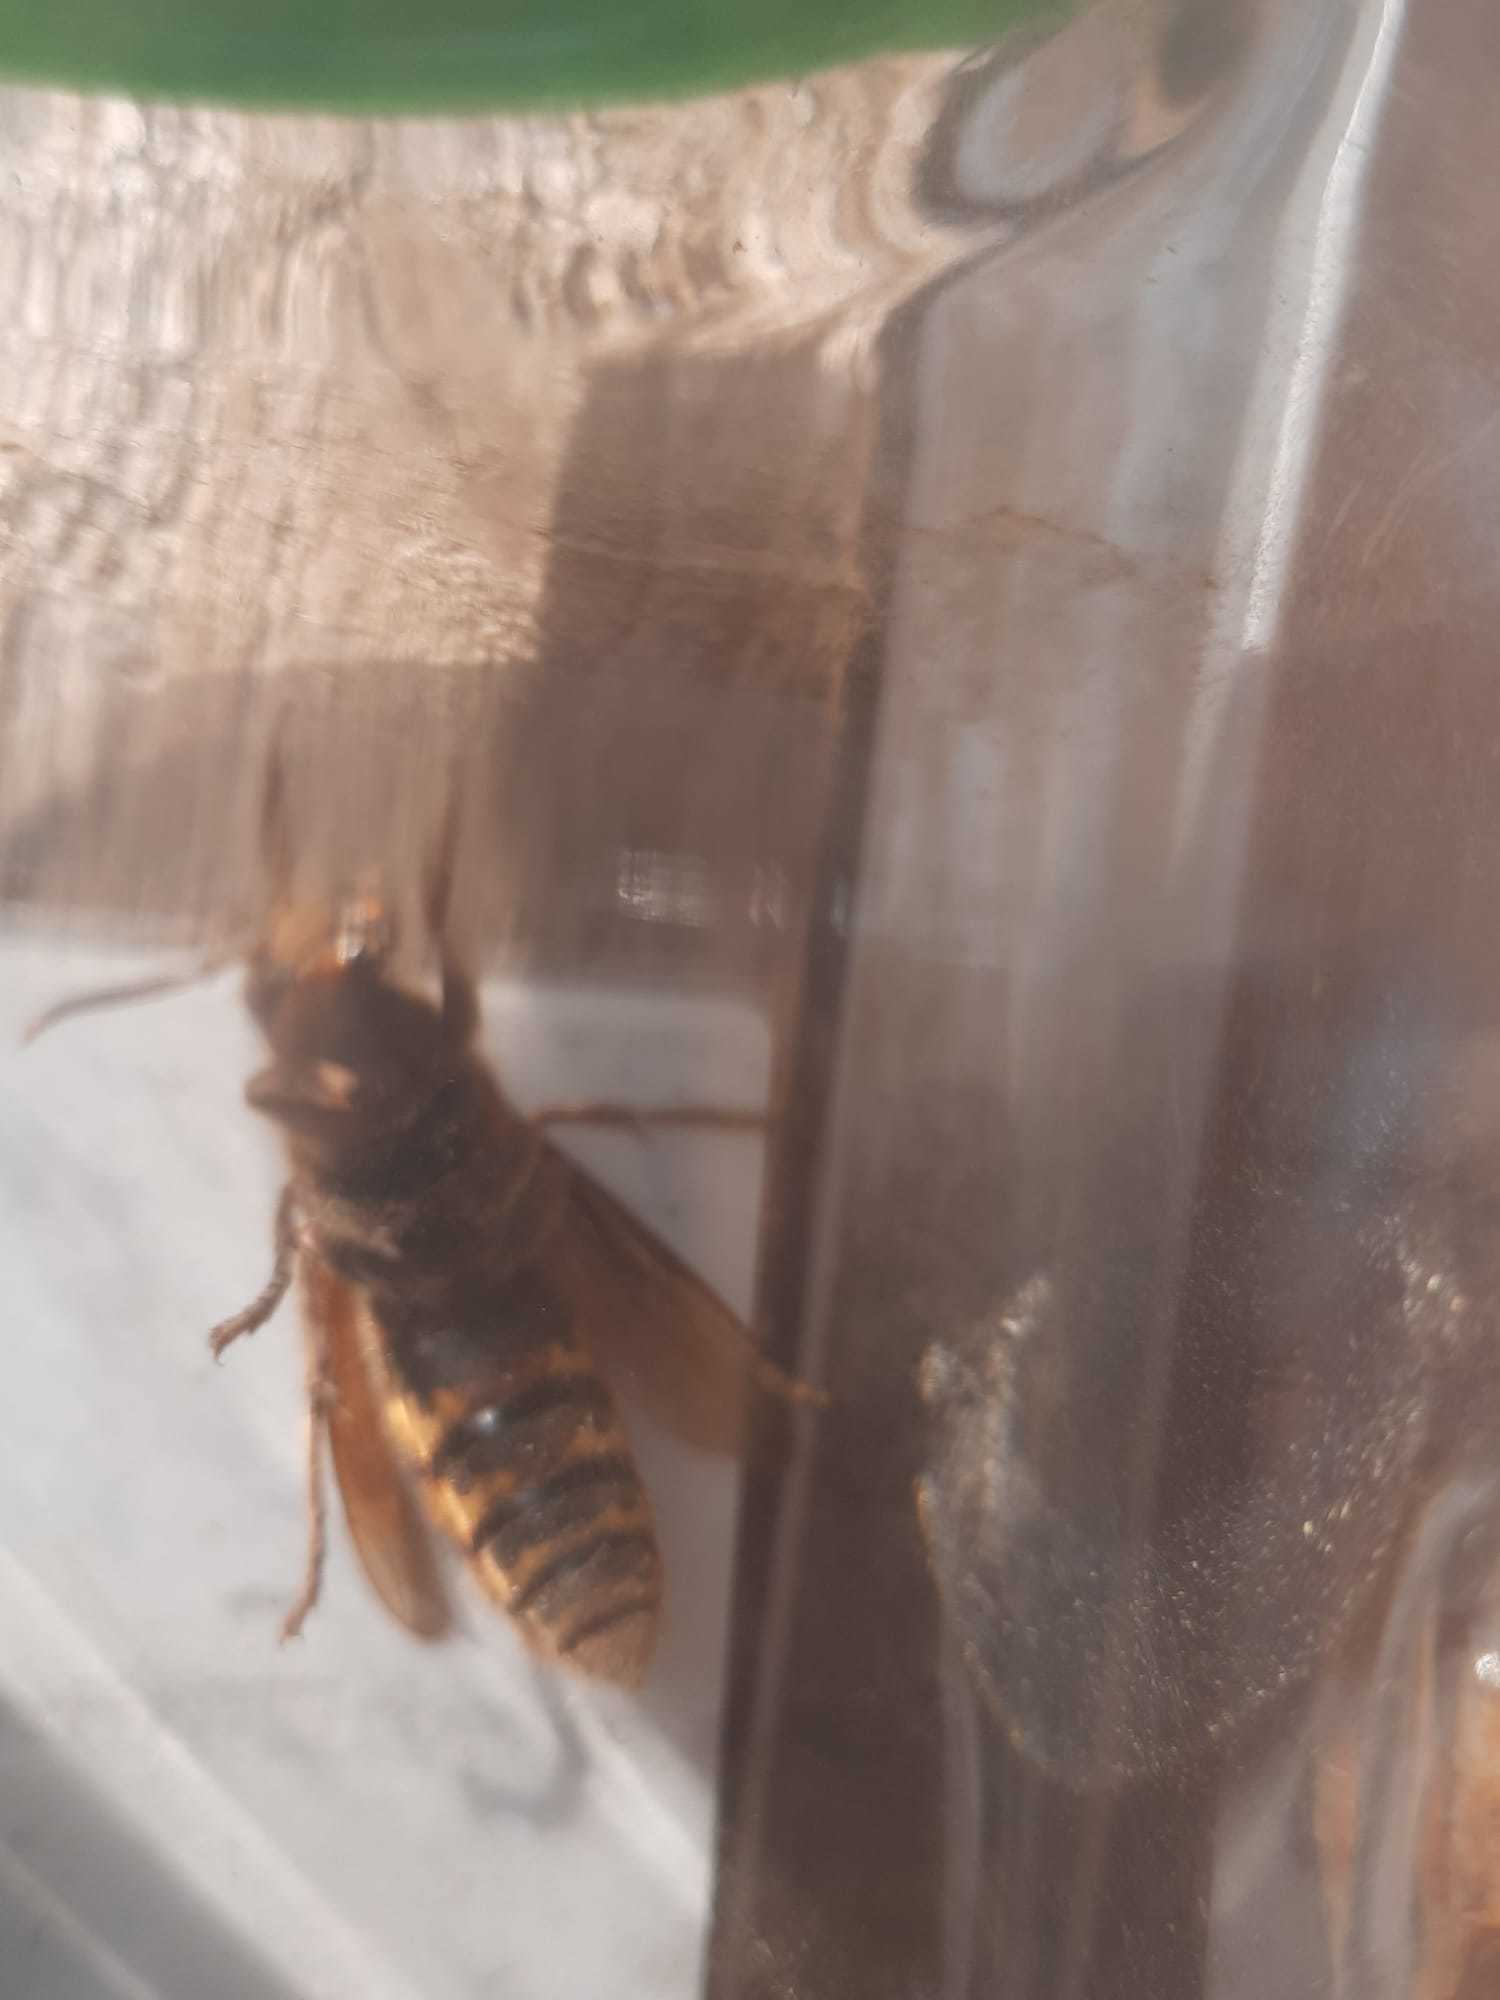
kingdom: Animalia
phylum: Arthropoda
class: Insecta
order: Hymenoptera
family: Vespidae
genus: Vespa
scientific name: Vespa crabro
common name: Hornet
